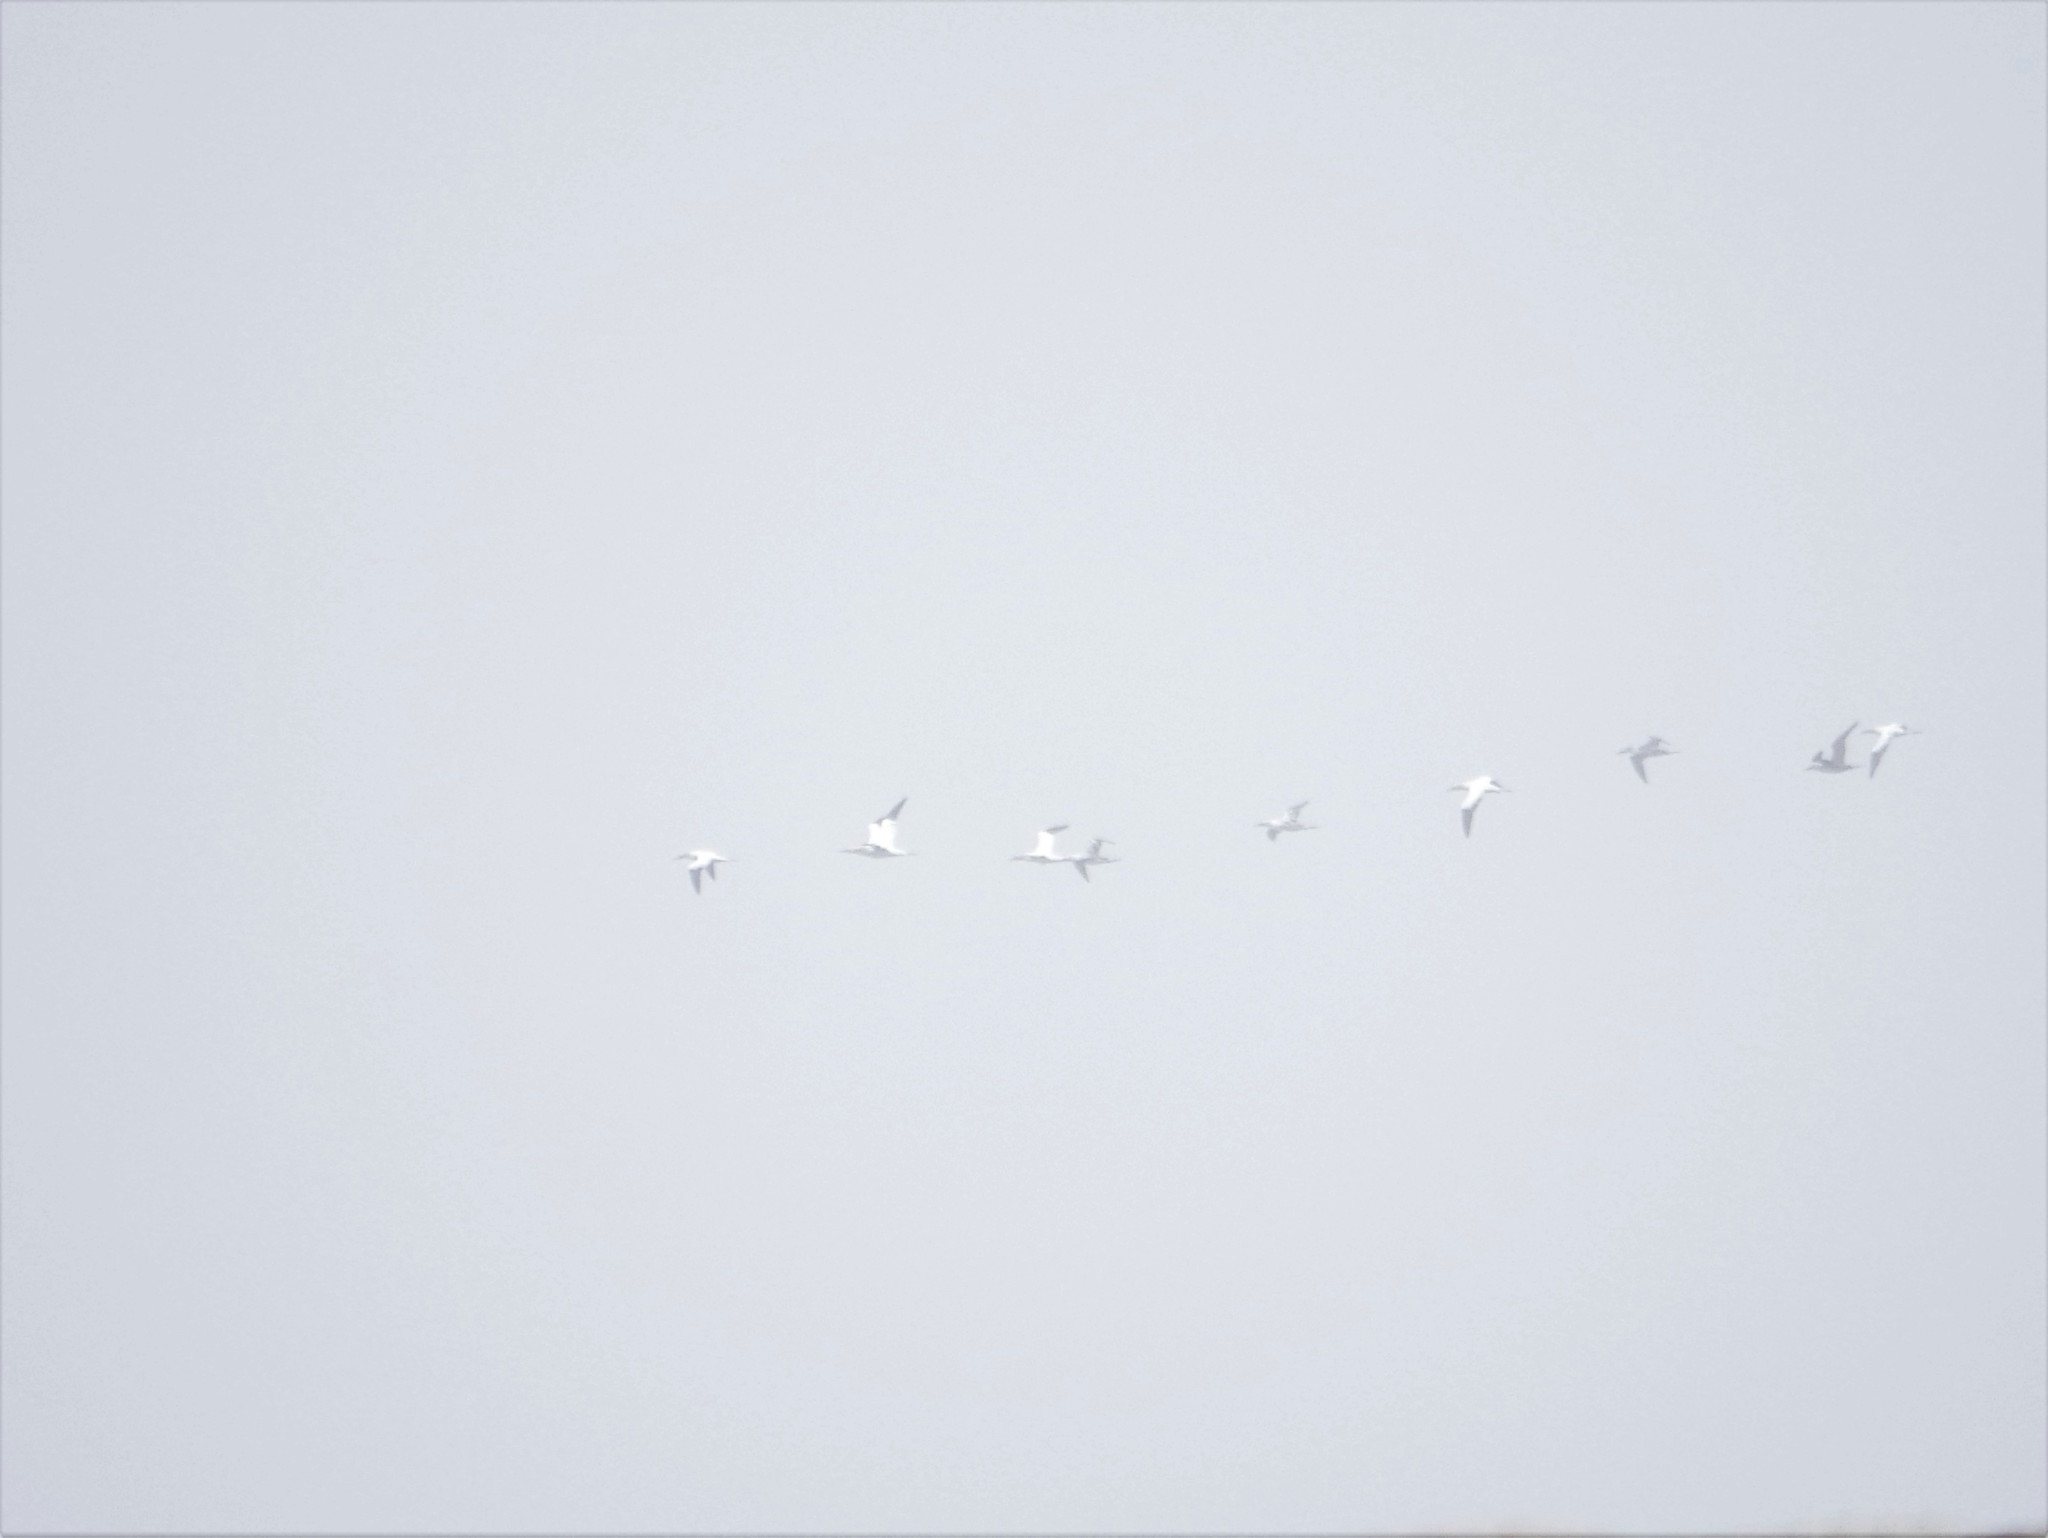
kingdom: Animalia
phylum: Chordata
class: Aves
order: Suliformes
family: Sulidae
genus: Morus
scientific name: Morus bassanus
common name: Northern gannet
